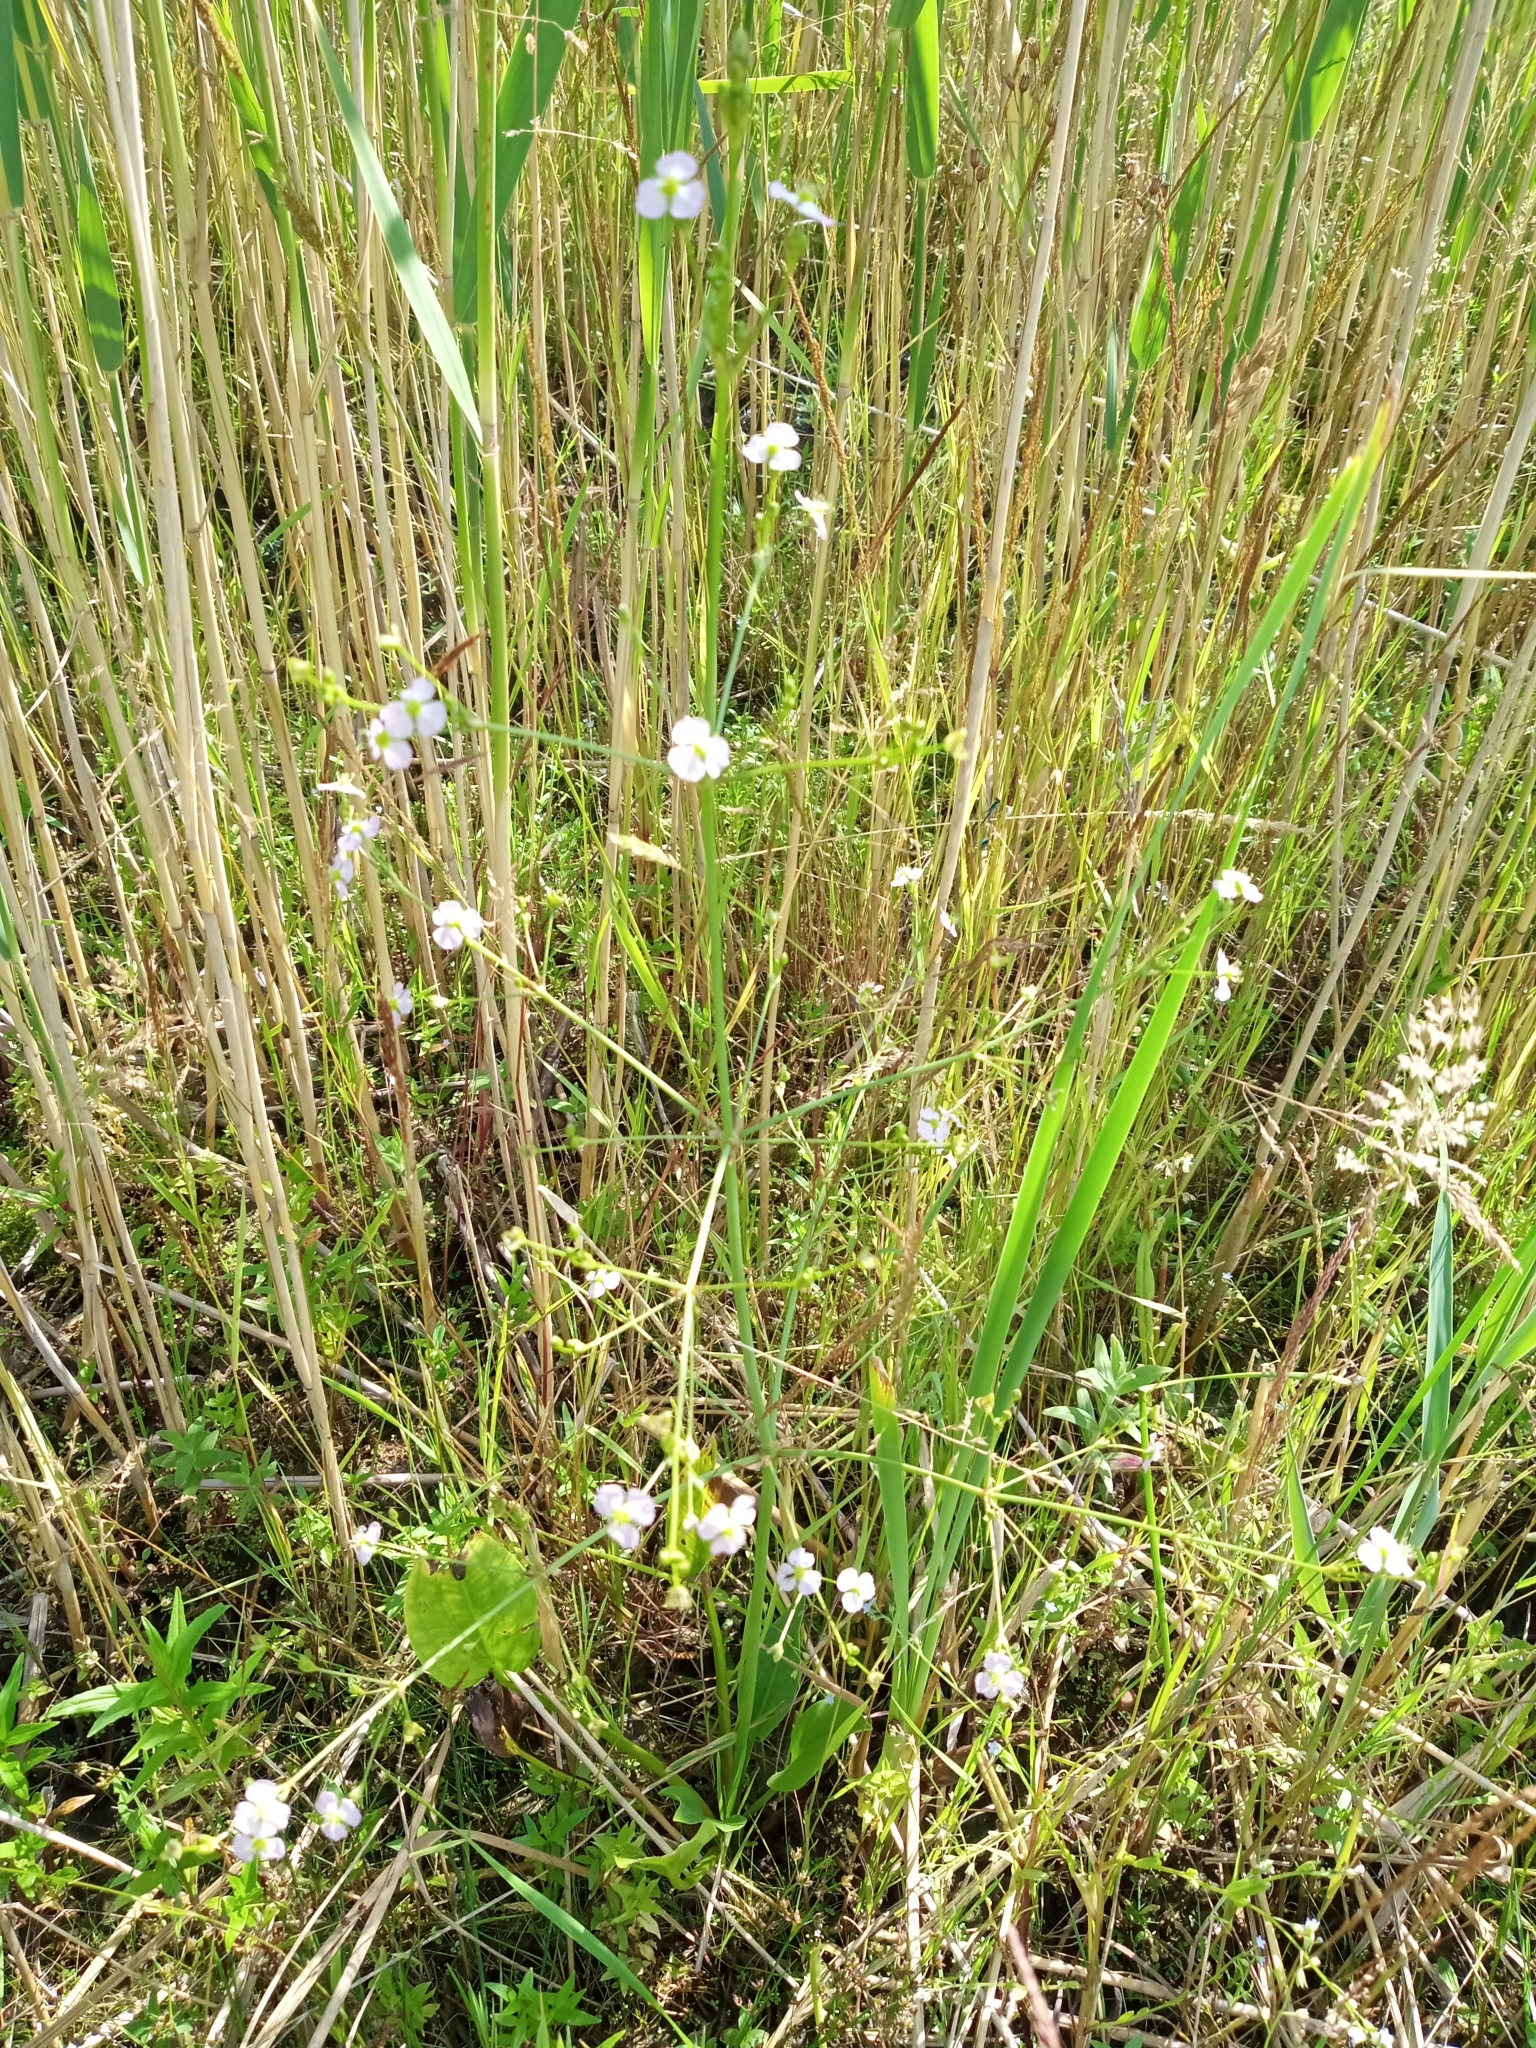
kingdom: Plantae
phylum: Tracheophyta
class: Liliopsida
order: Alismatales
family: Alismataceae
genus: Alisma
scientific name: Alisma plantago-aquatica
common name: Water-plantain
